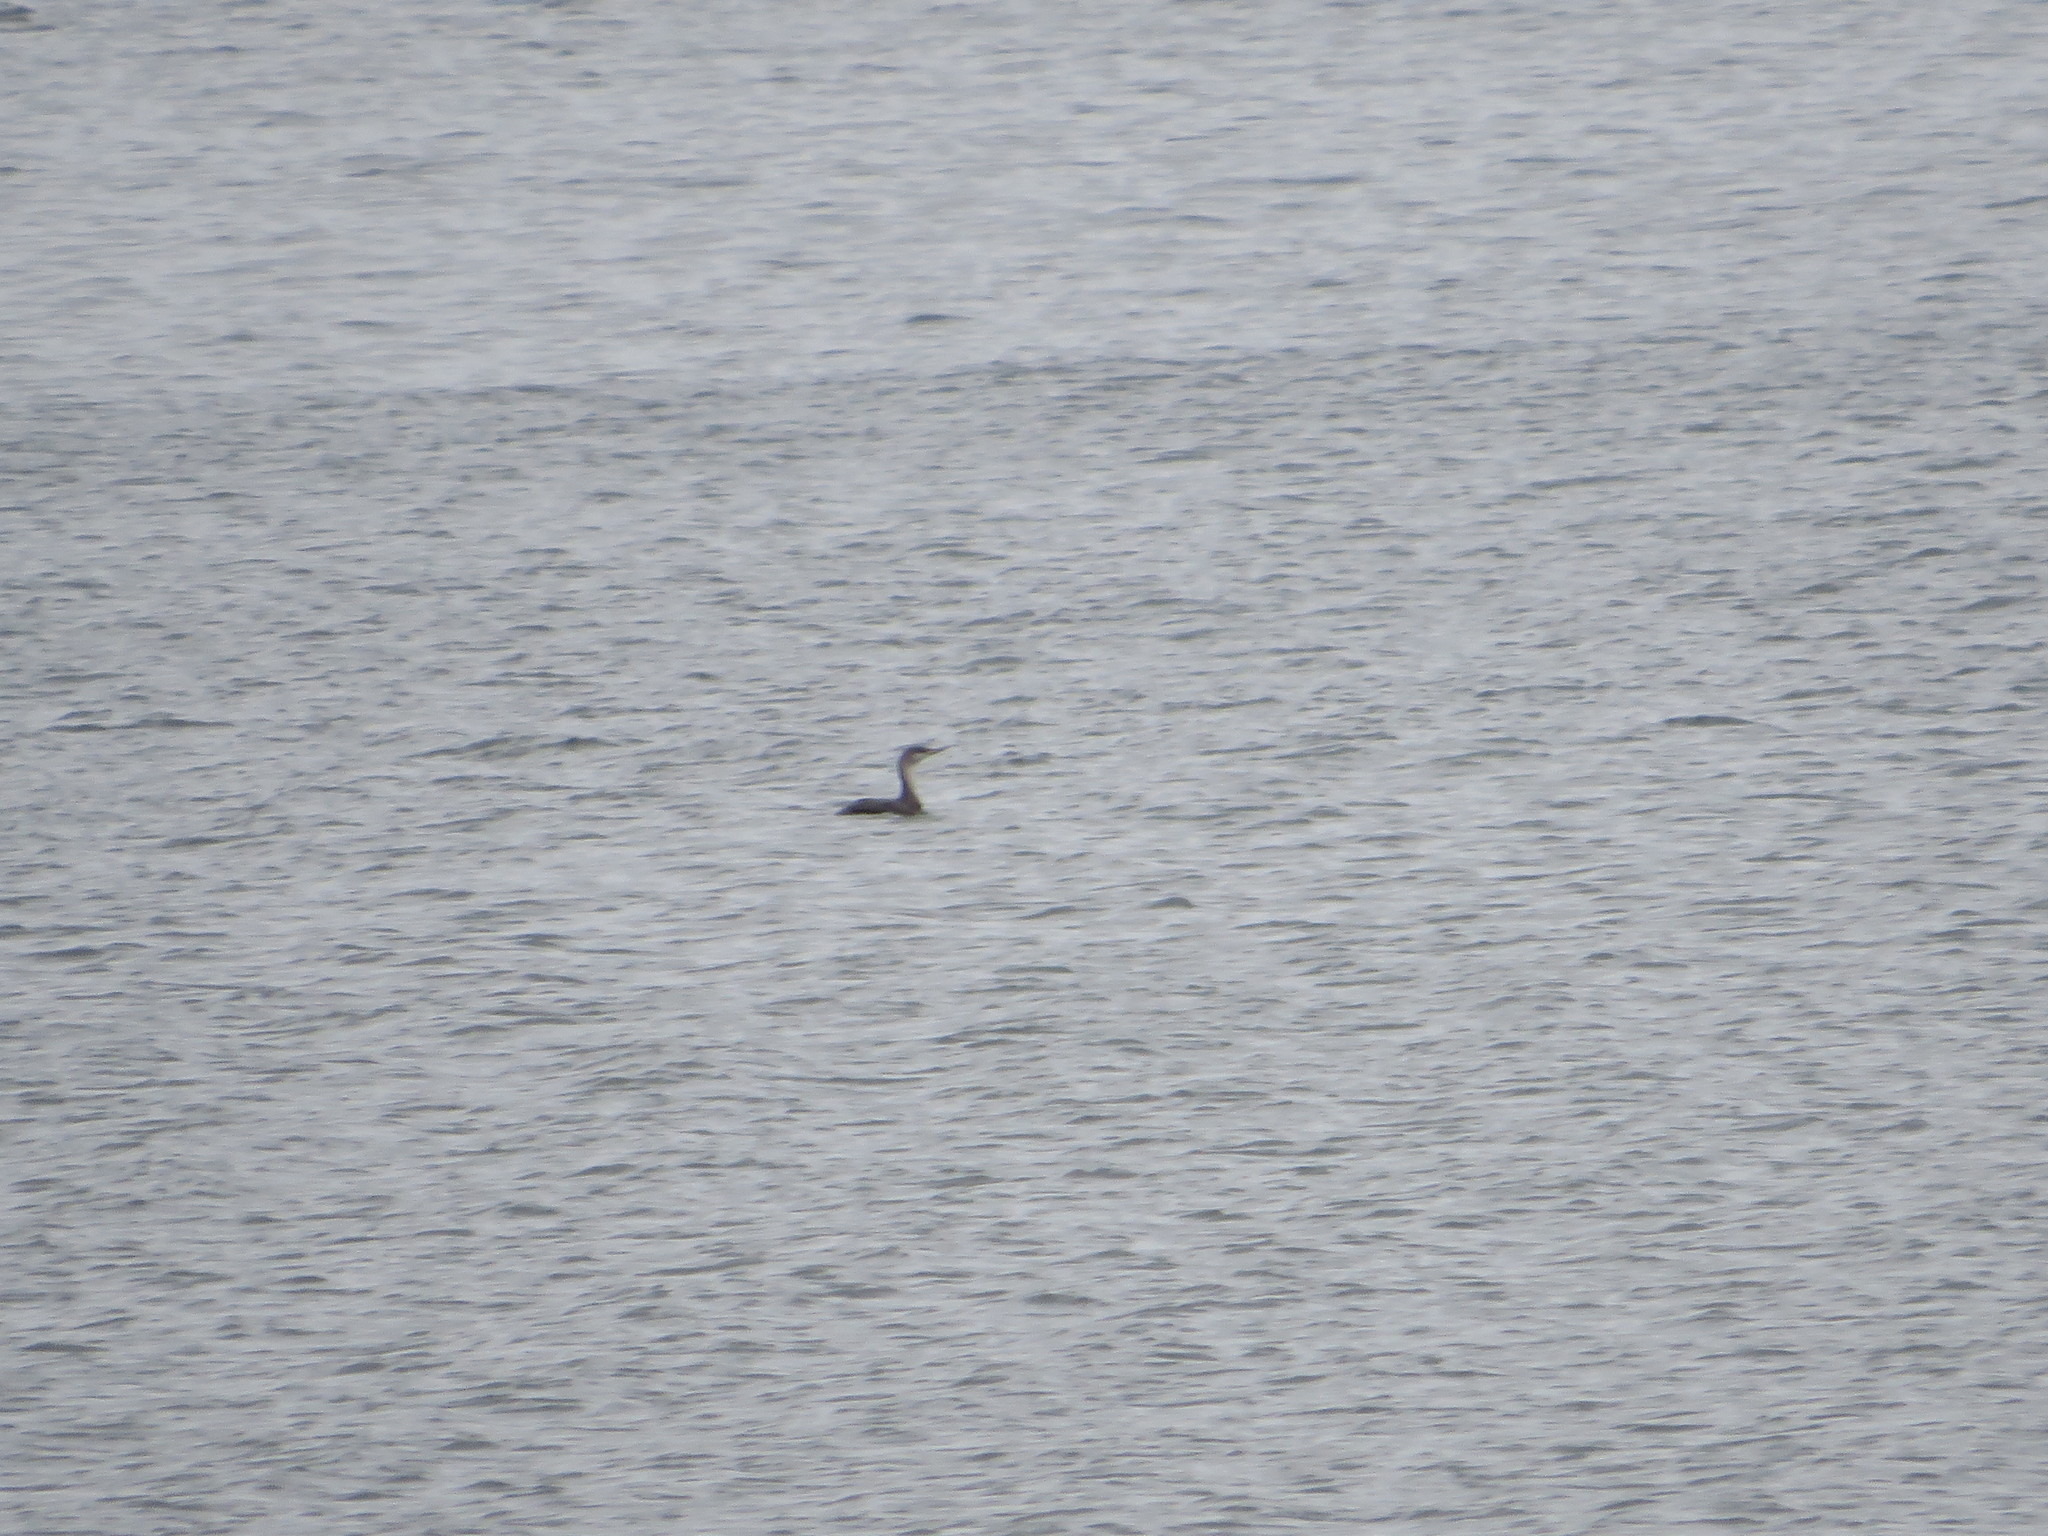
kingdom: Animalia
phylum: Chordata
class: Aves
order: Gaviiformes
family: Gaviidae
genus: Gavia
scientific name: Gavia stellata
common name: Red-throated loon
